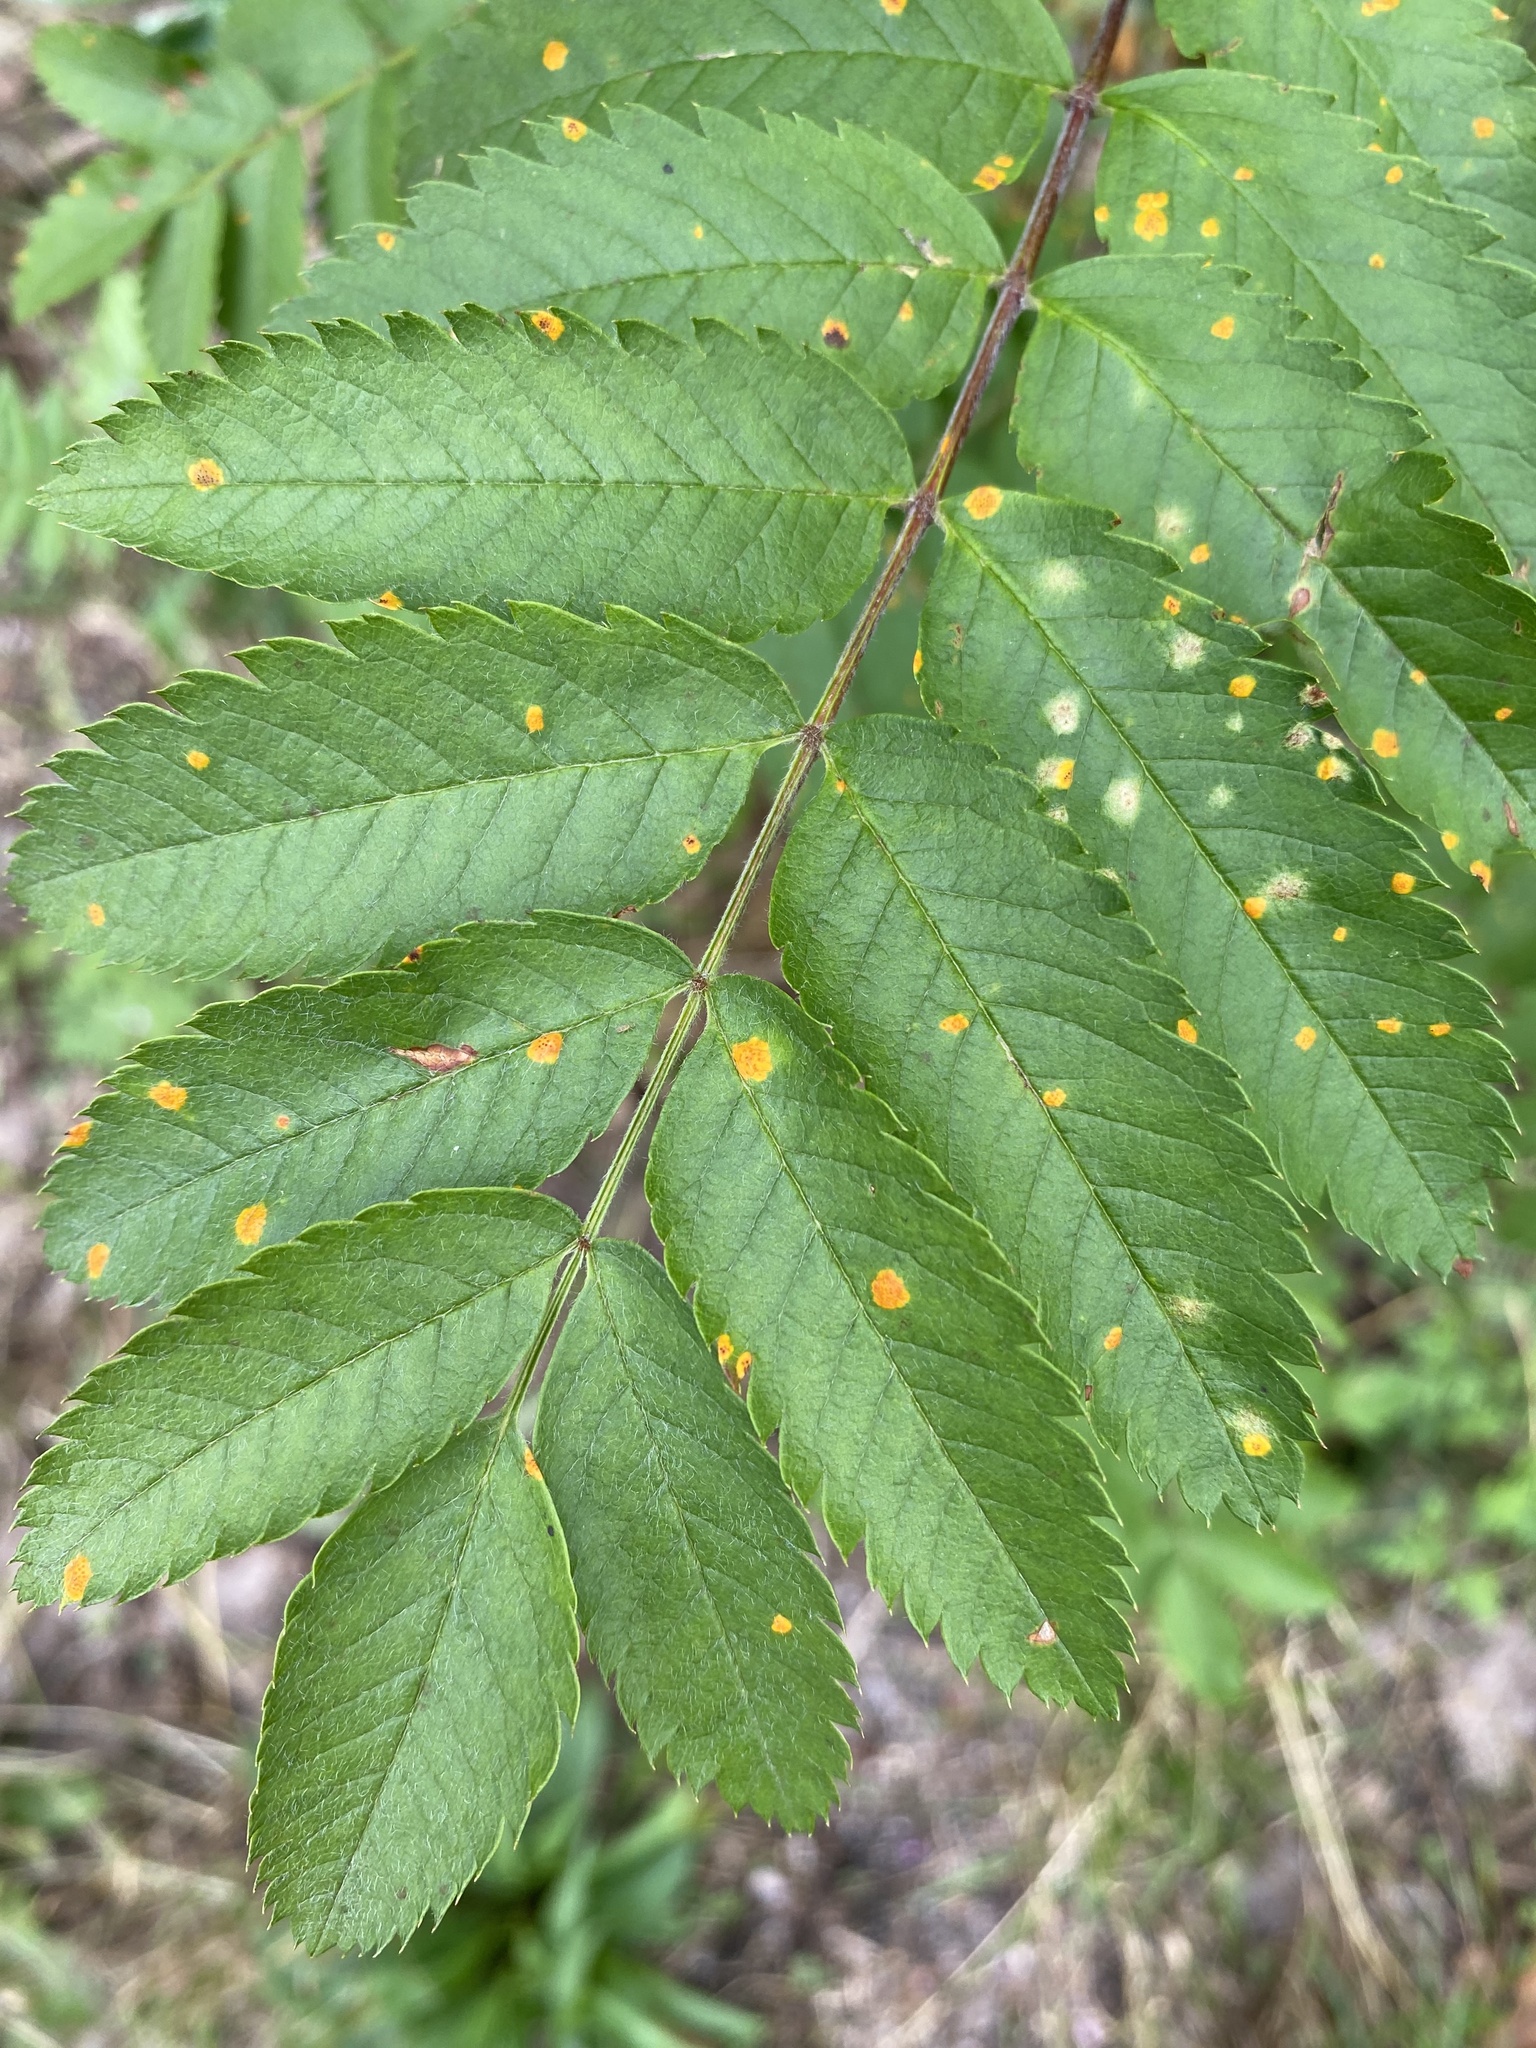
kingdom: Fungi
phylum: Basidiomycota
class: Pucciniomycetes
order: Pucciniales
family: Gymnosporangiaceae
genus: Gymnosporangium
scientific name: Gymnosporangium cornutum
